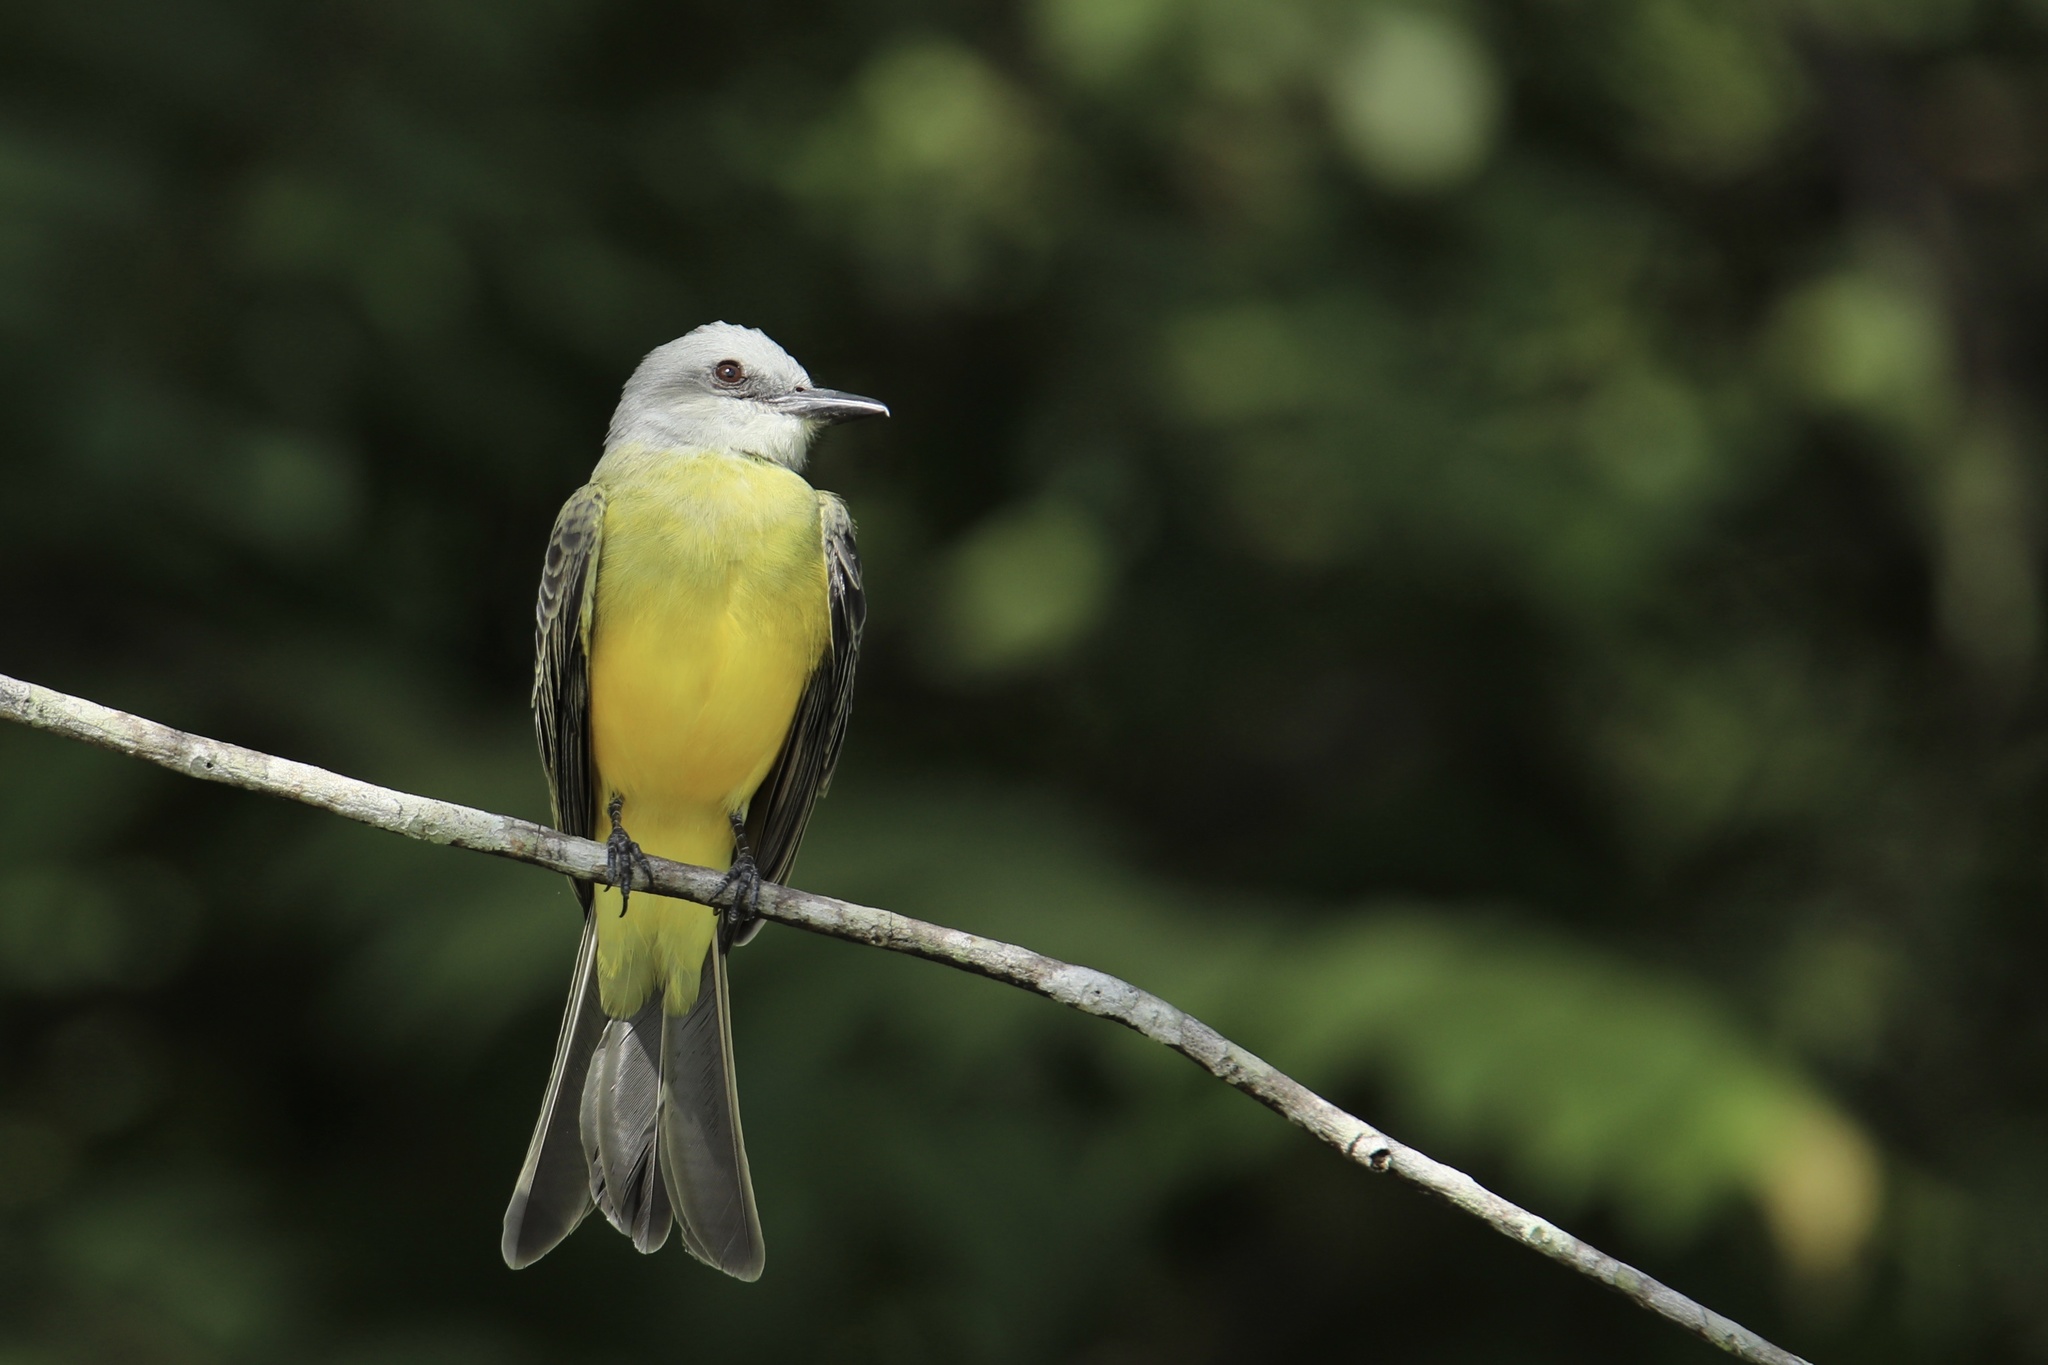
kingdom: Animalia
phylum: Chordata
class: Aves
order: Passeriformes
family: Tyrannidae
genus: Tyrannus
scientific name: Tyrannus melancholicus
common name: Tropical kingbird
